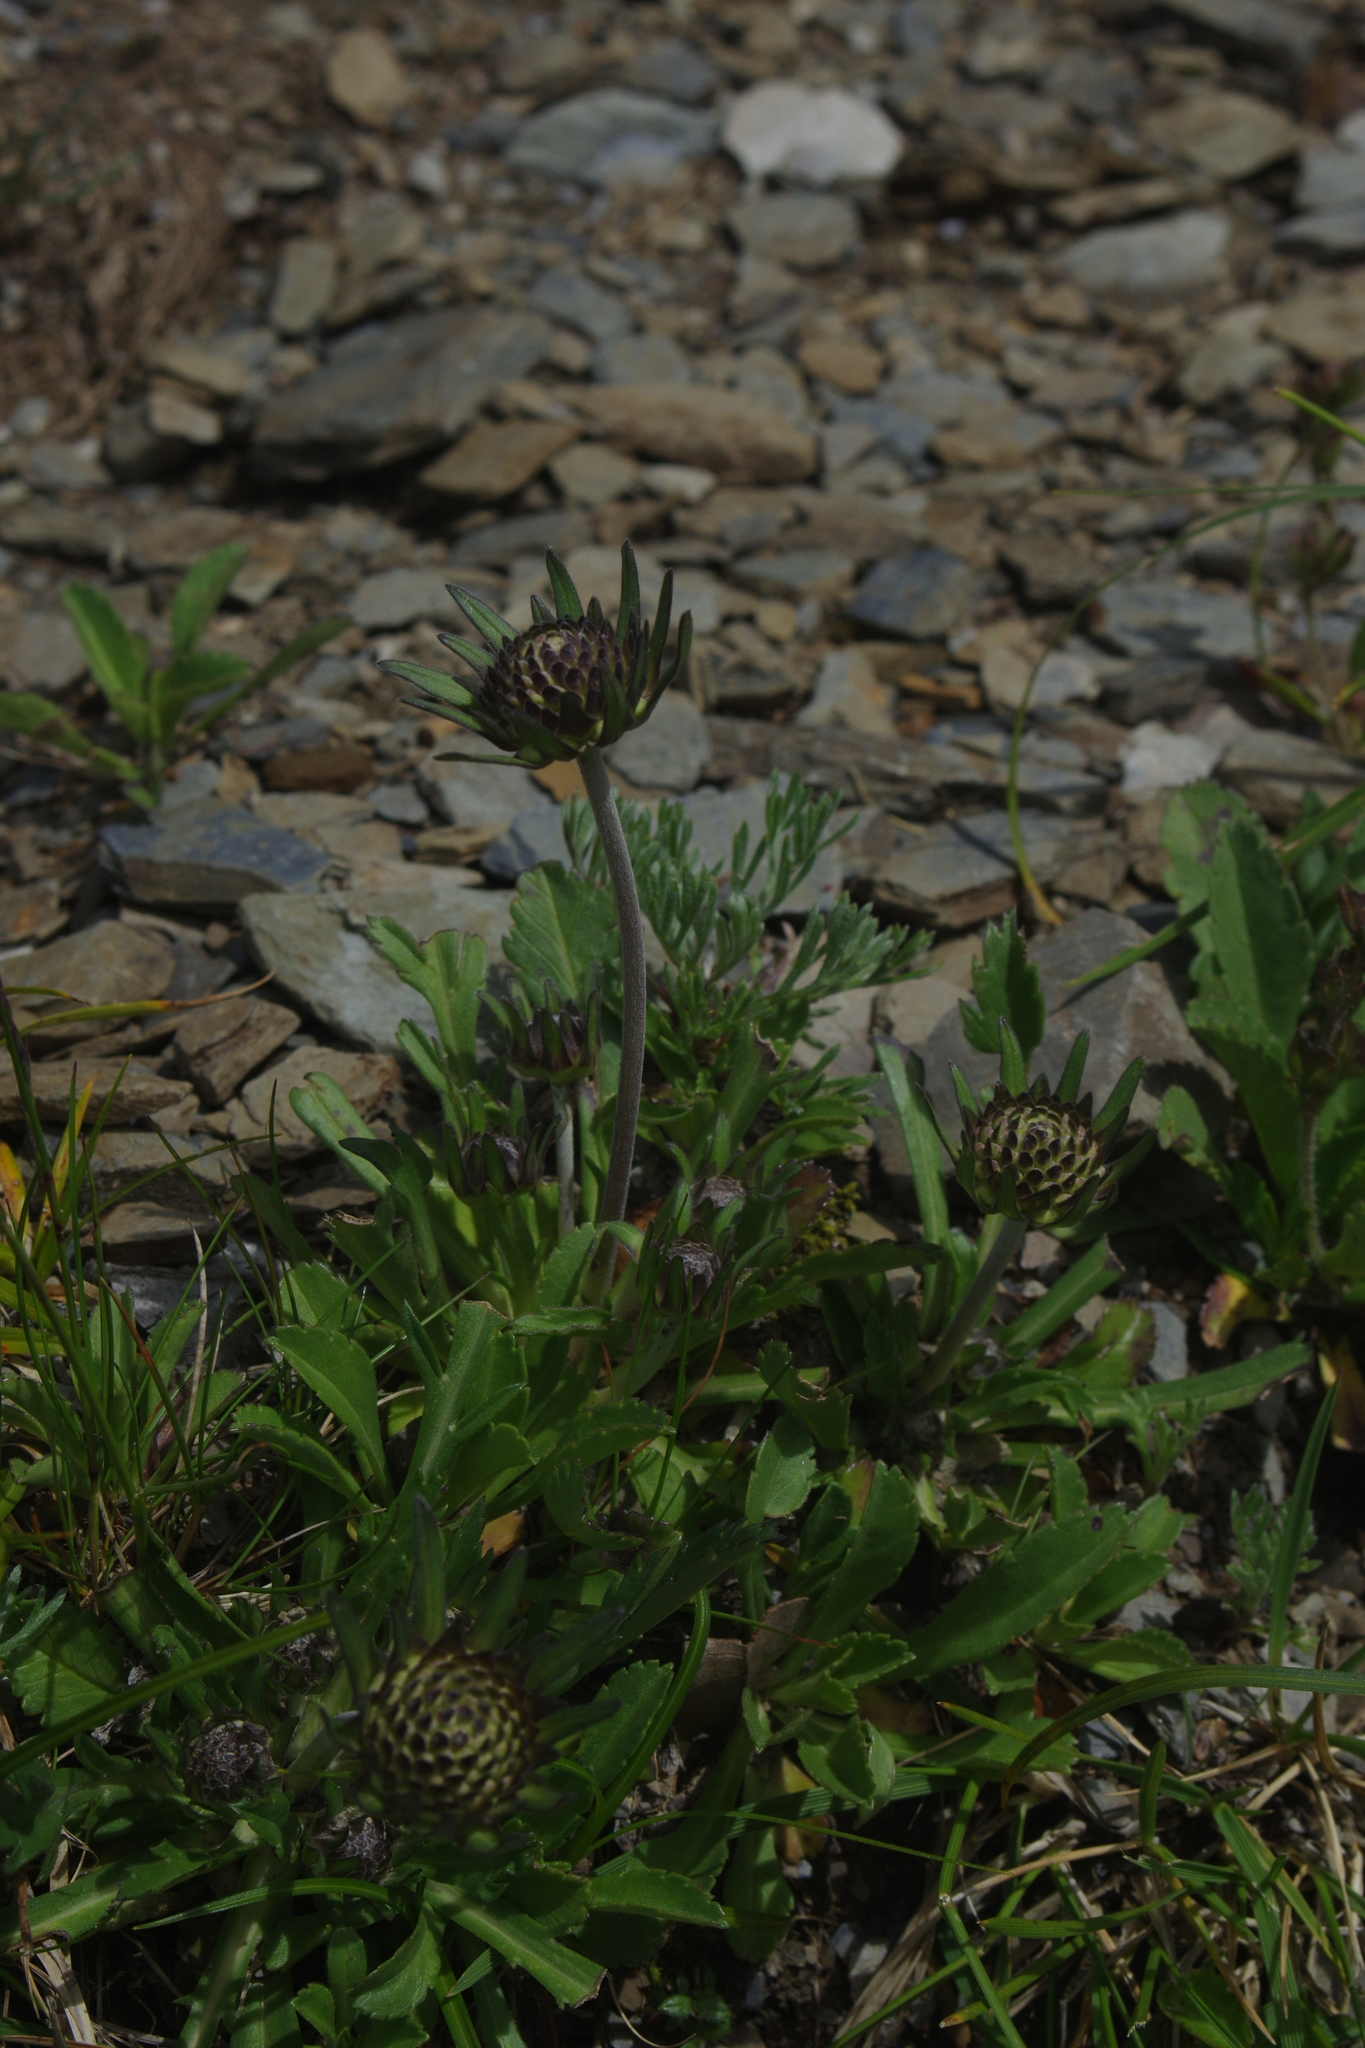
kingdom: Plantae
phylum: Tracheophyta
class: Magnoliopsida
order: Dipsacales
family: Caprifoliaceae
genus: Scabiosa
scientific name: Scabiosa lacerifolia
